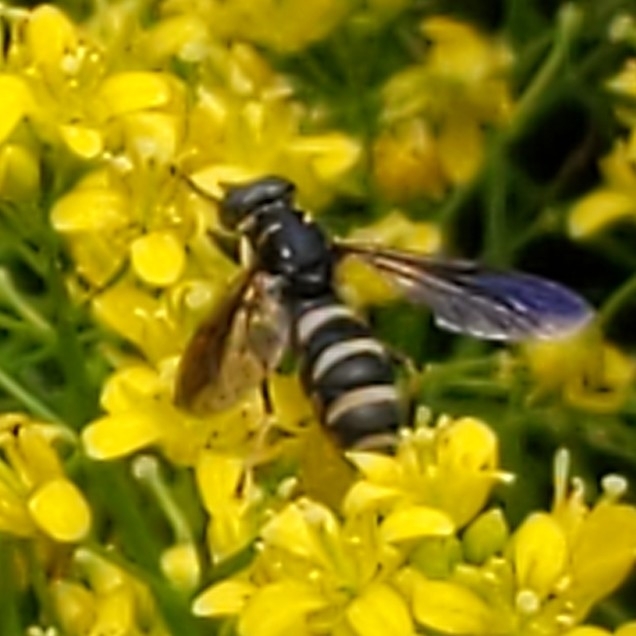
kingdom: Animalia
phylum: Arthropoda
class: Insecta
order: Diptera
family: Syrphidae
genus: Temnostoma
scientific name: Temnostoma
